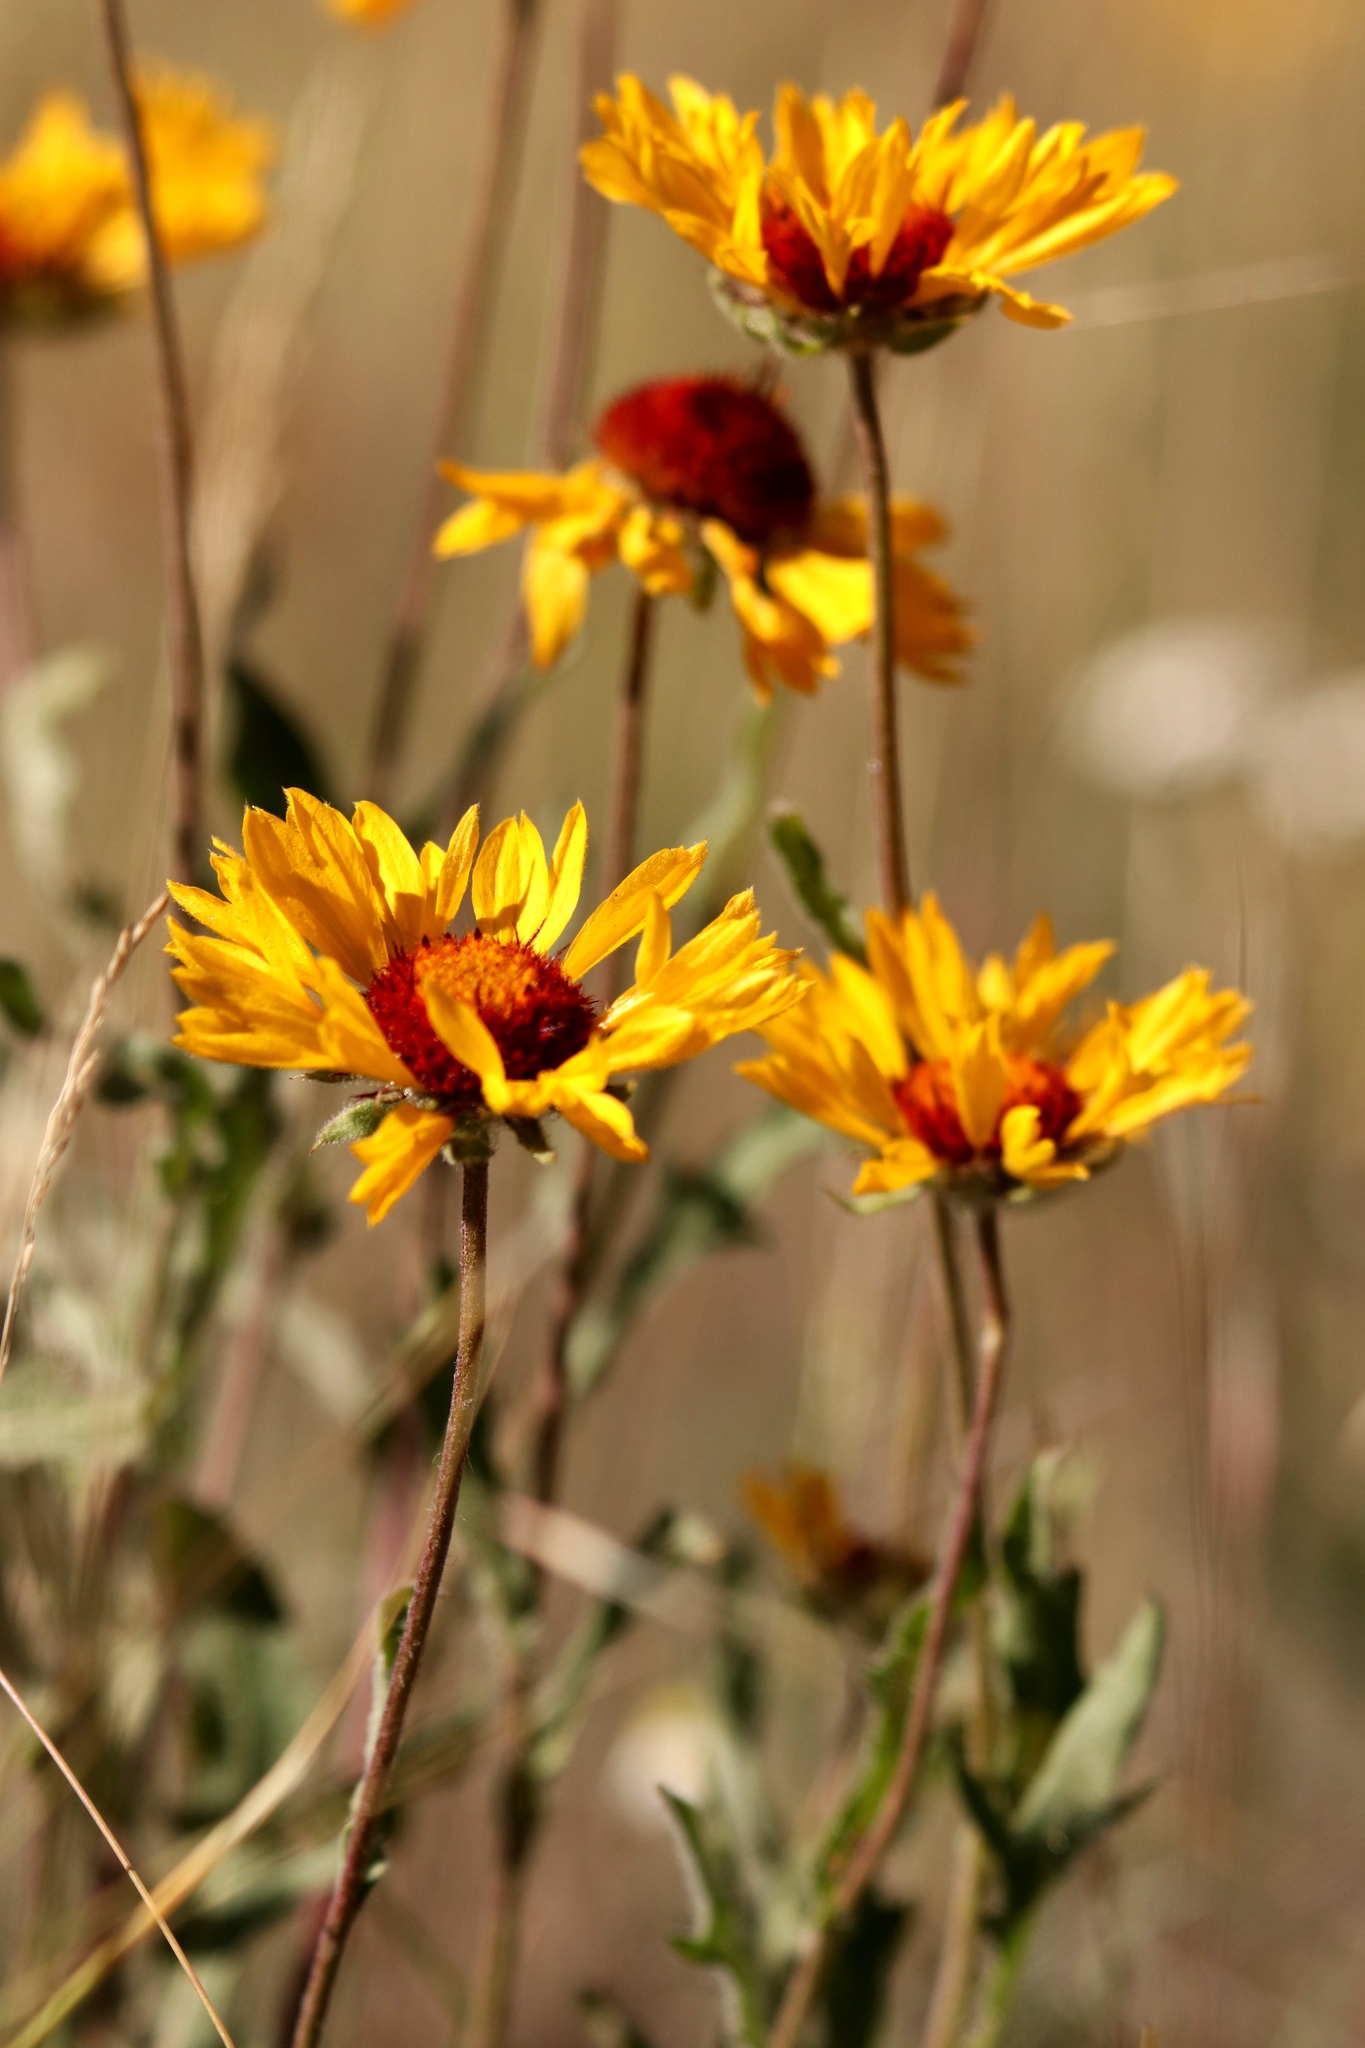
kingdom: Plantae
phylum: Tracheophyta
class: Magnoliopsida
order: Asterales
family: Asteraceae
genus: Gaillardia
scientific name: Gaillardia aristata
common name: Blanket-flower
